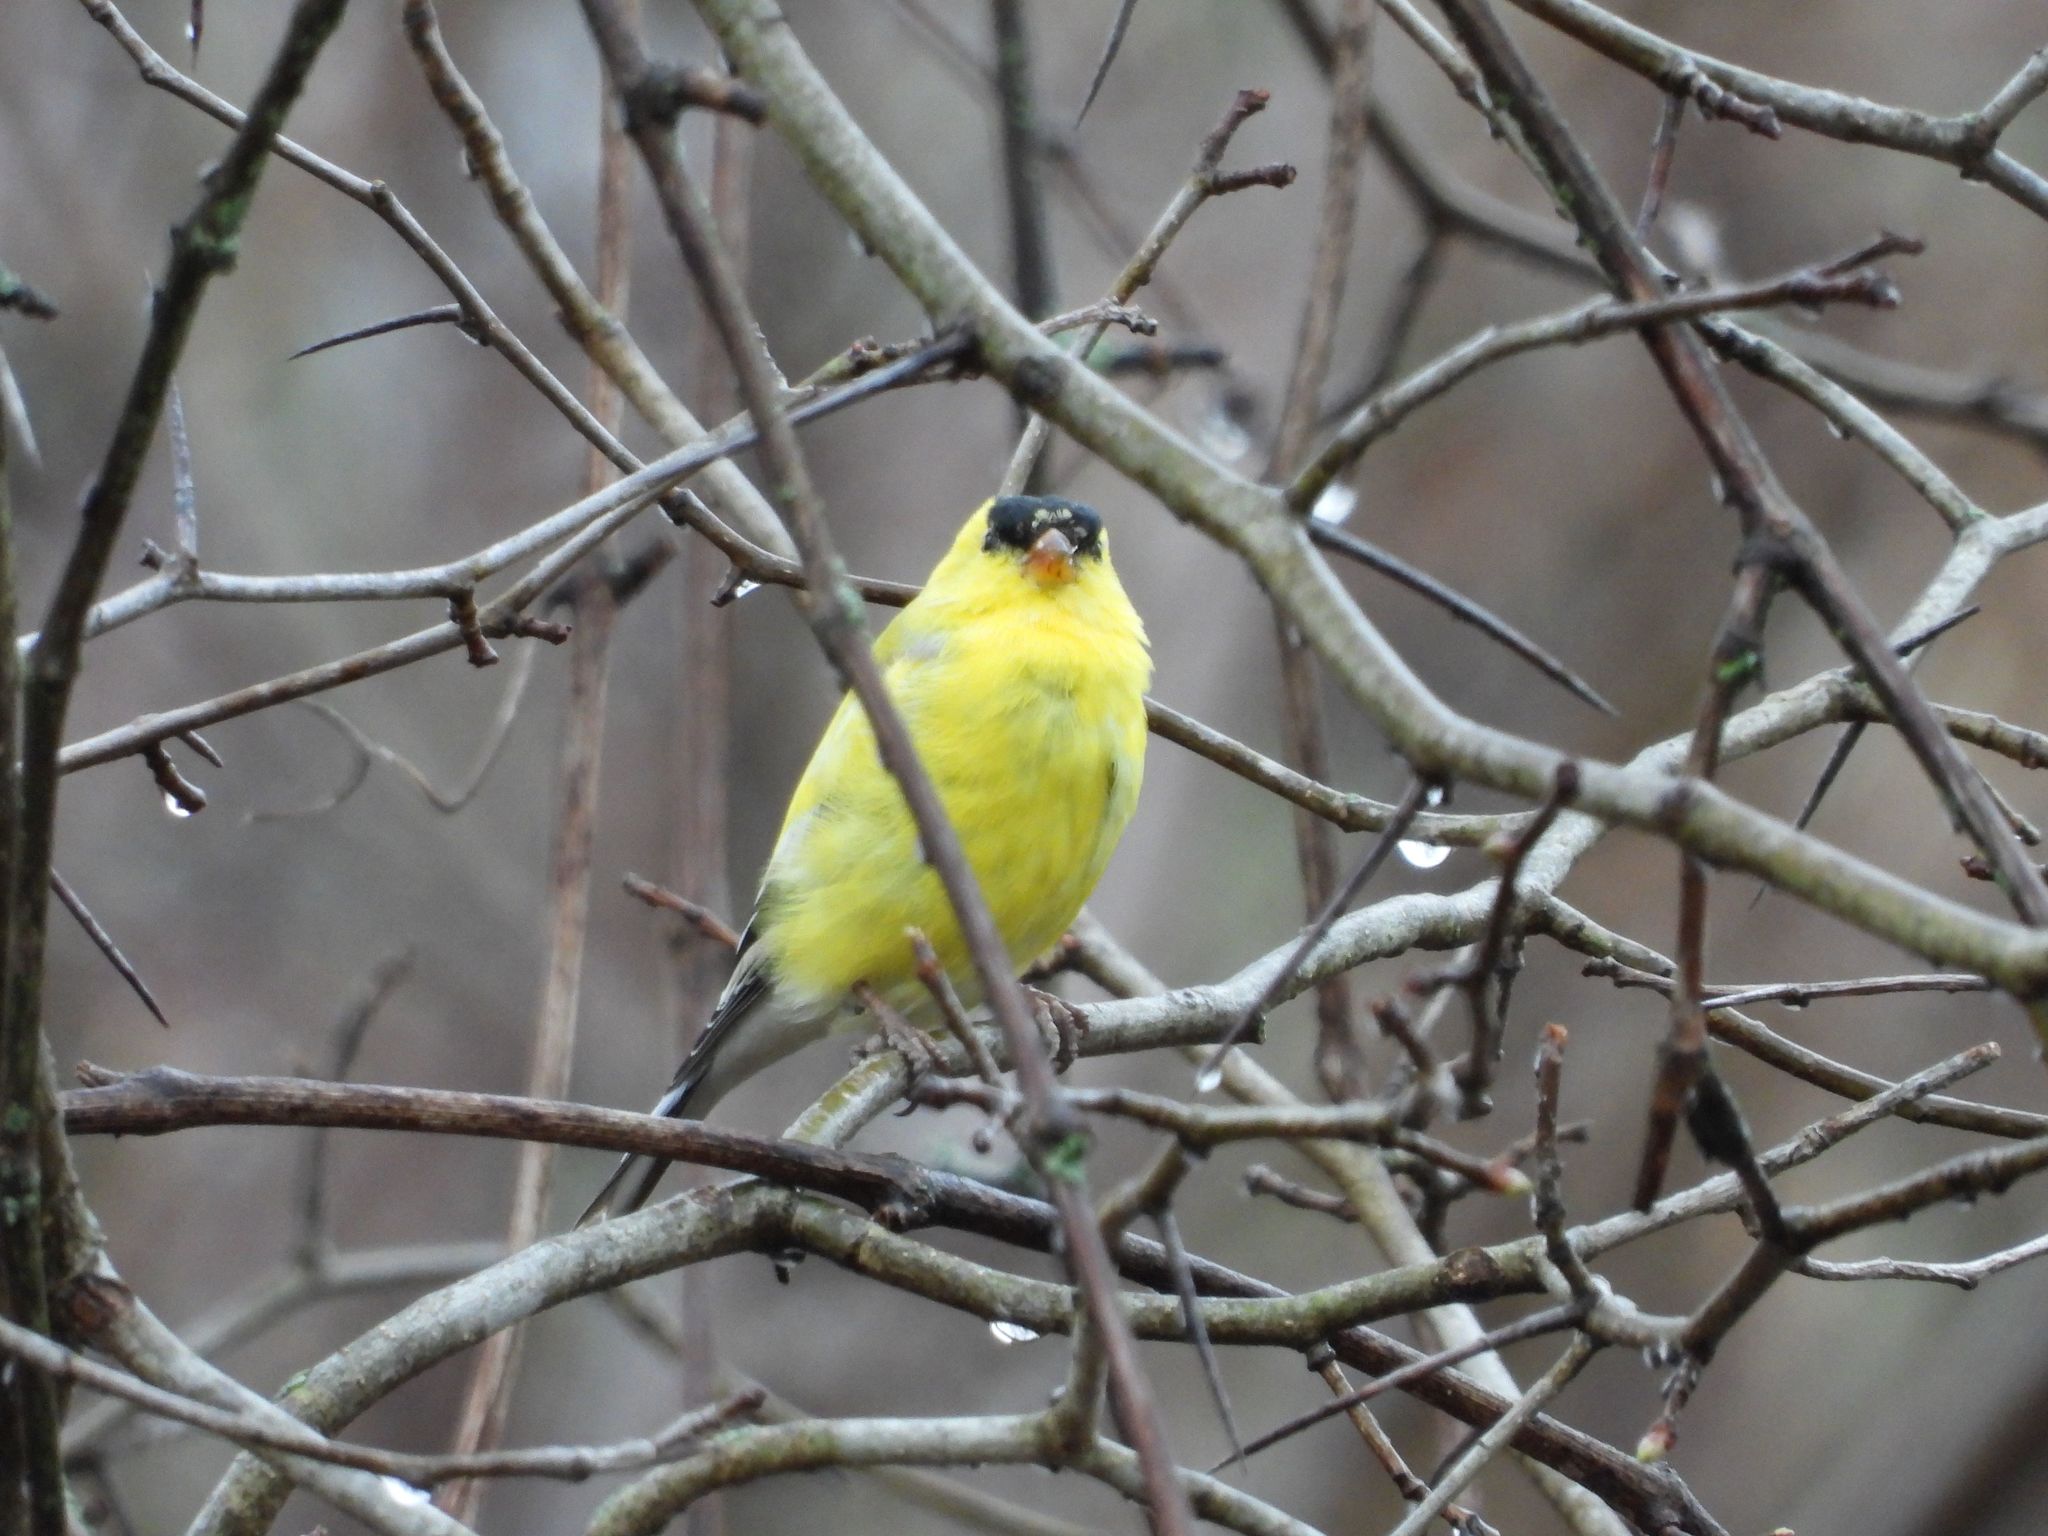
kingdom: Animalia
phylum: Chordata
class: Aves
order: Passeriformes
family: Fringillidae
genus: Spinus
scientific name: Spinus tristis
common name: American goldfinch
